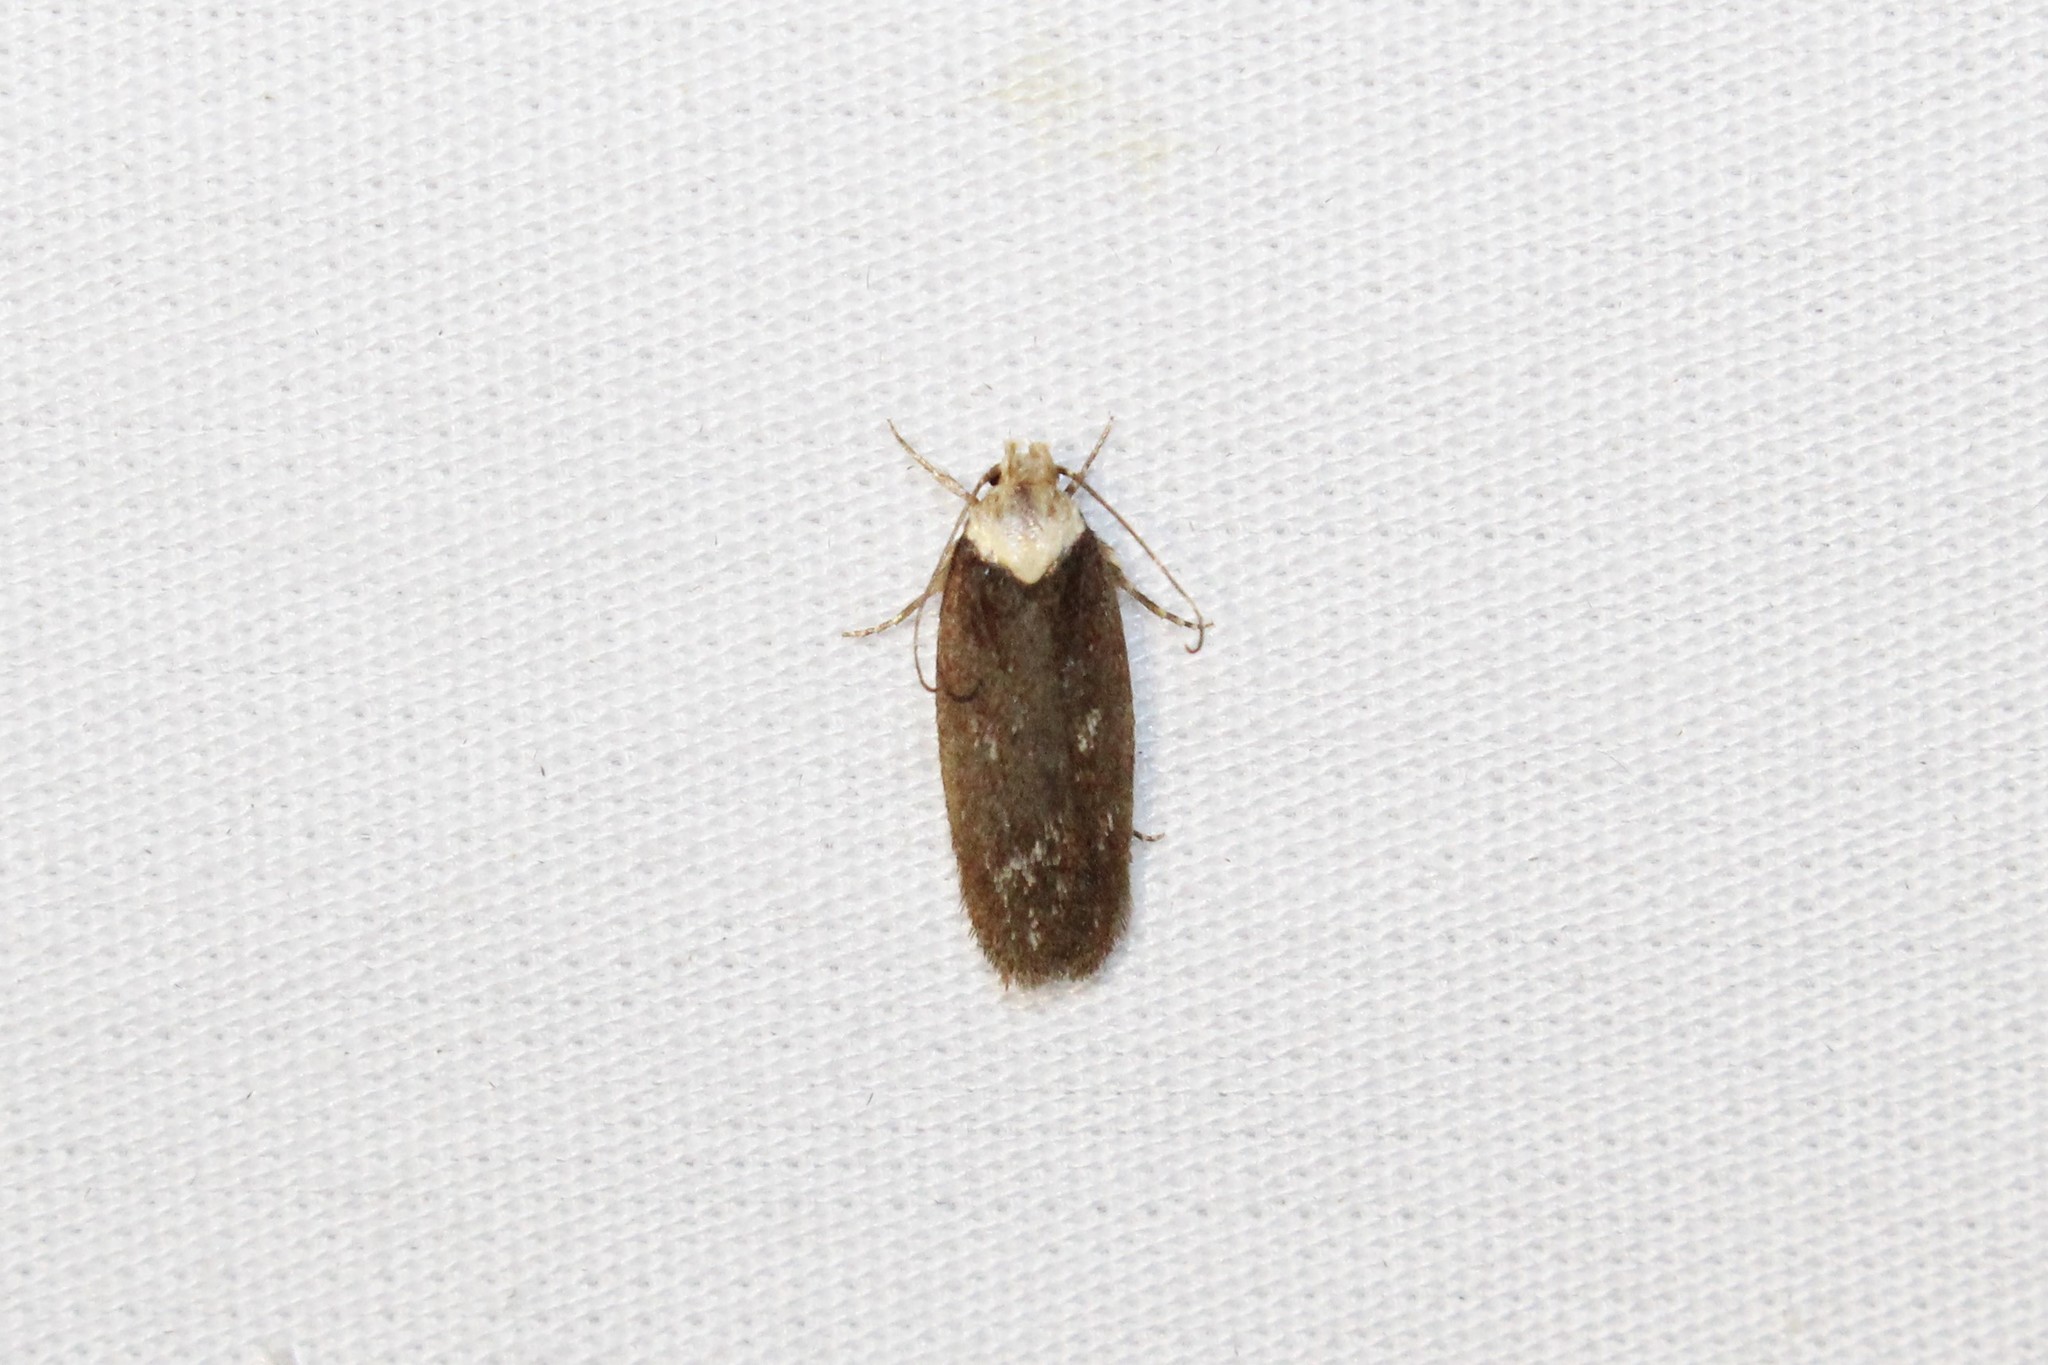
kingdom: Animalia
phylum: Arthropoda
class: Insecta
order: Lepidoptera
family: Depressariidae
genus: Depressaria
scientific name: Depressaria depressana
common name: Lost flat-body
